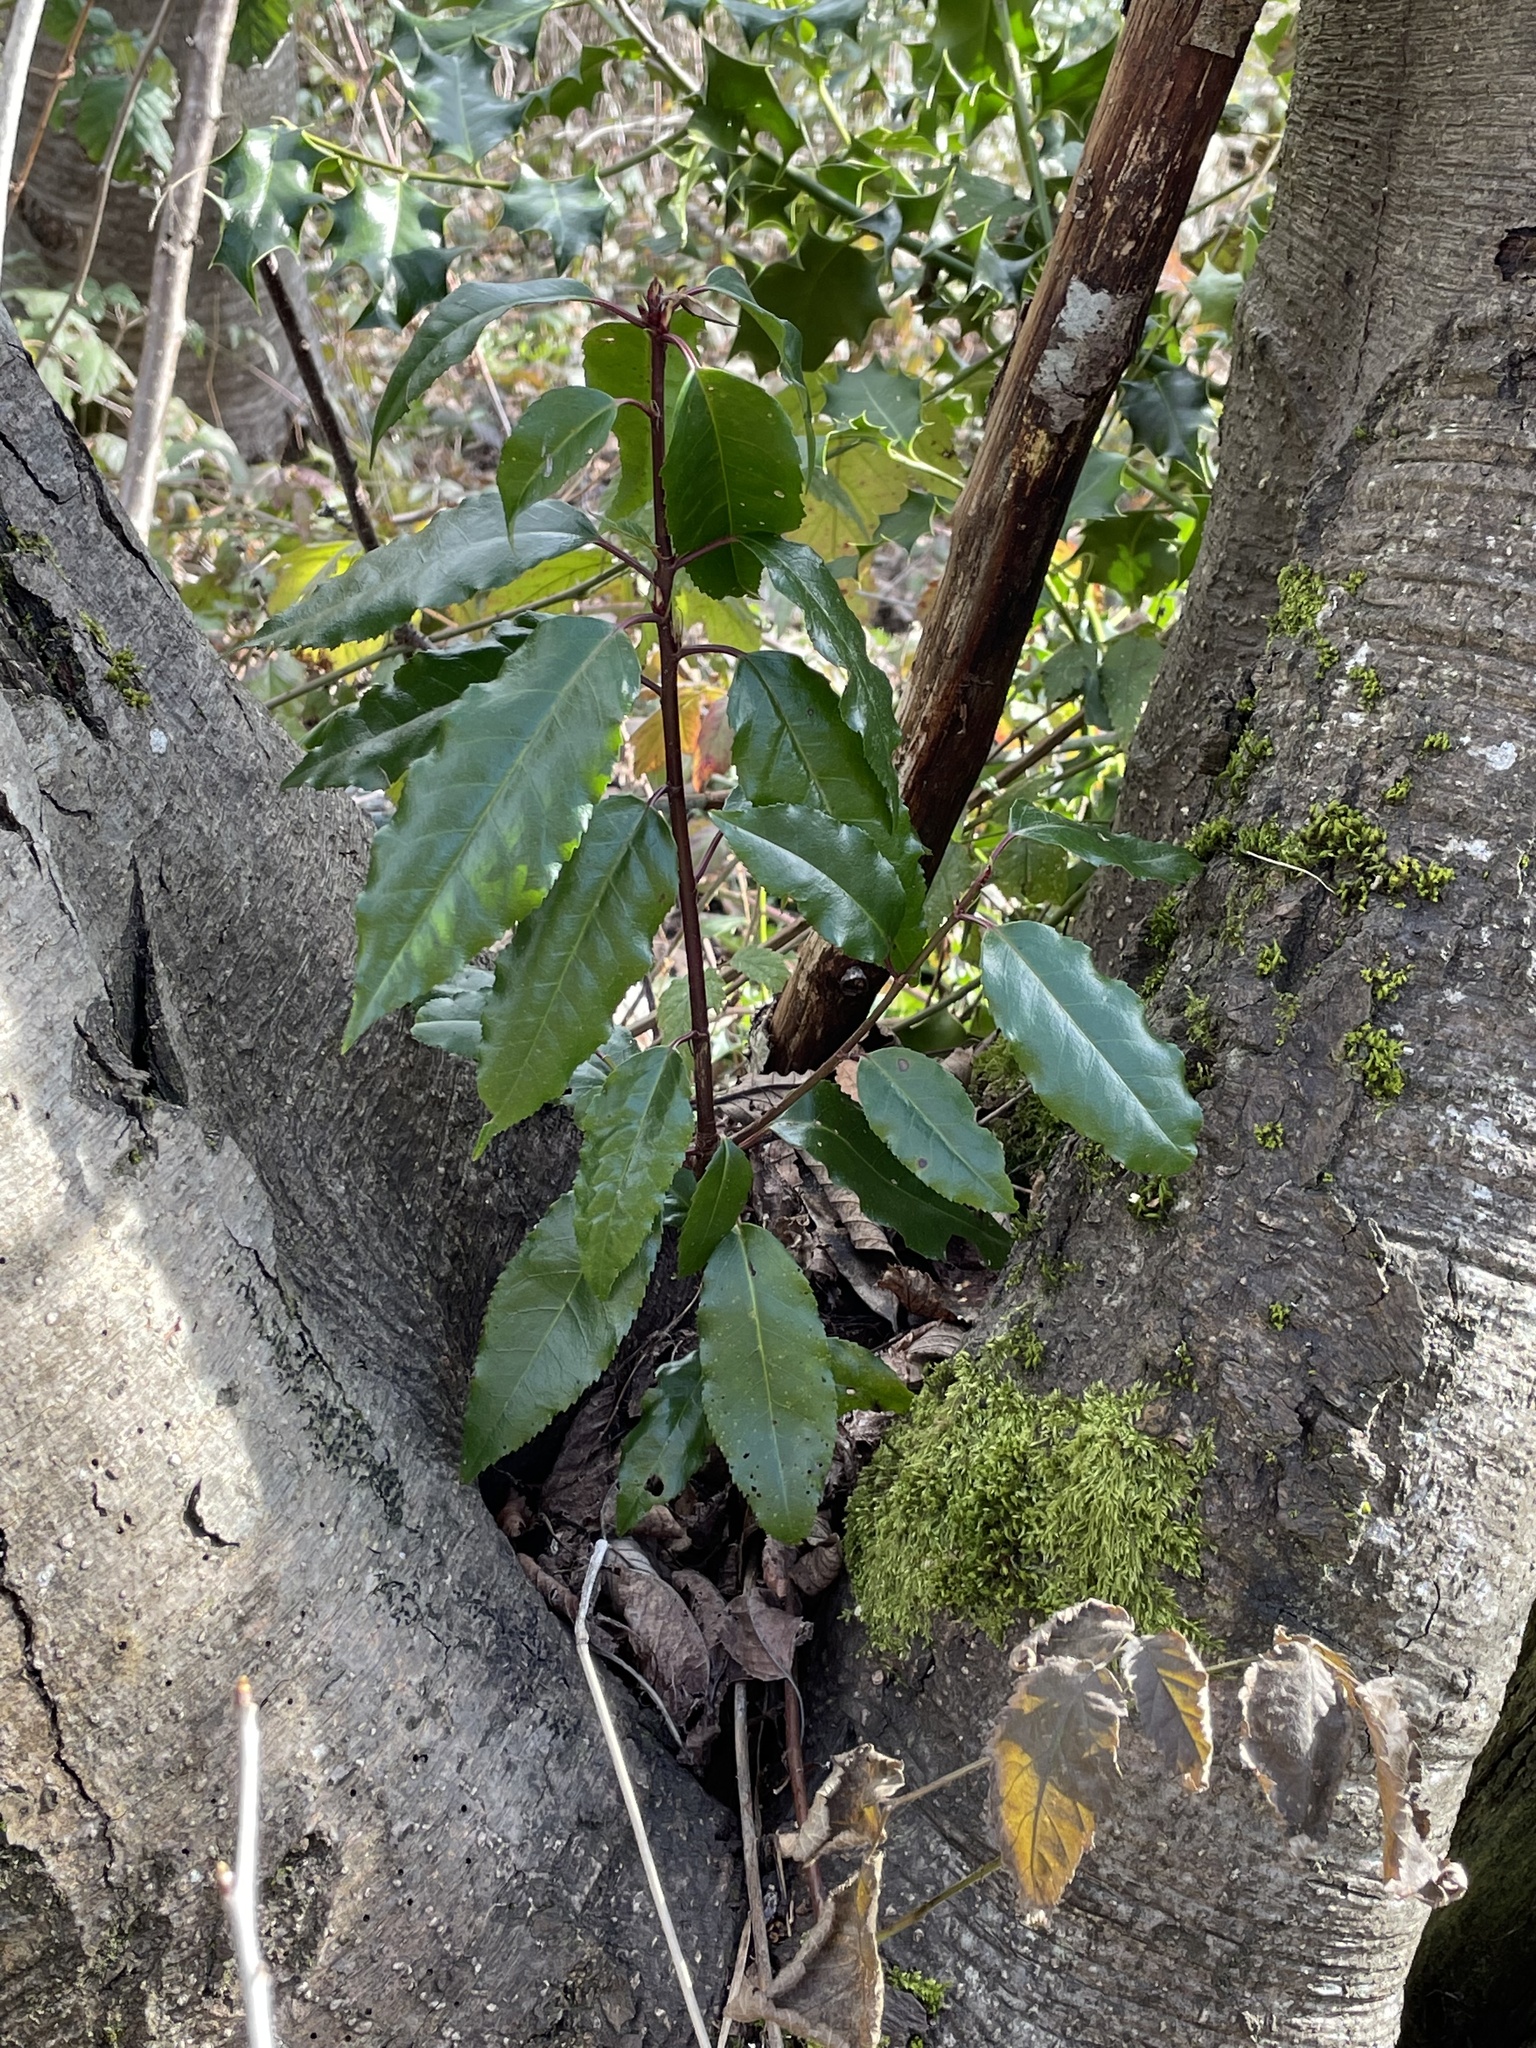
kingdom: Plantae
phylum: Tracheophyta
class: Magnoliopsida
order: Rosales
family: Rosaceae
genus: Prunus
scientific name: Prunus lusitanica
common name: Portugal laurel
